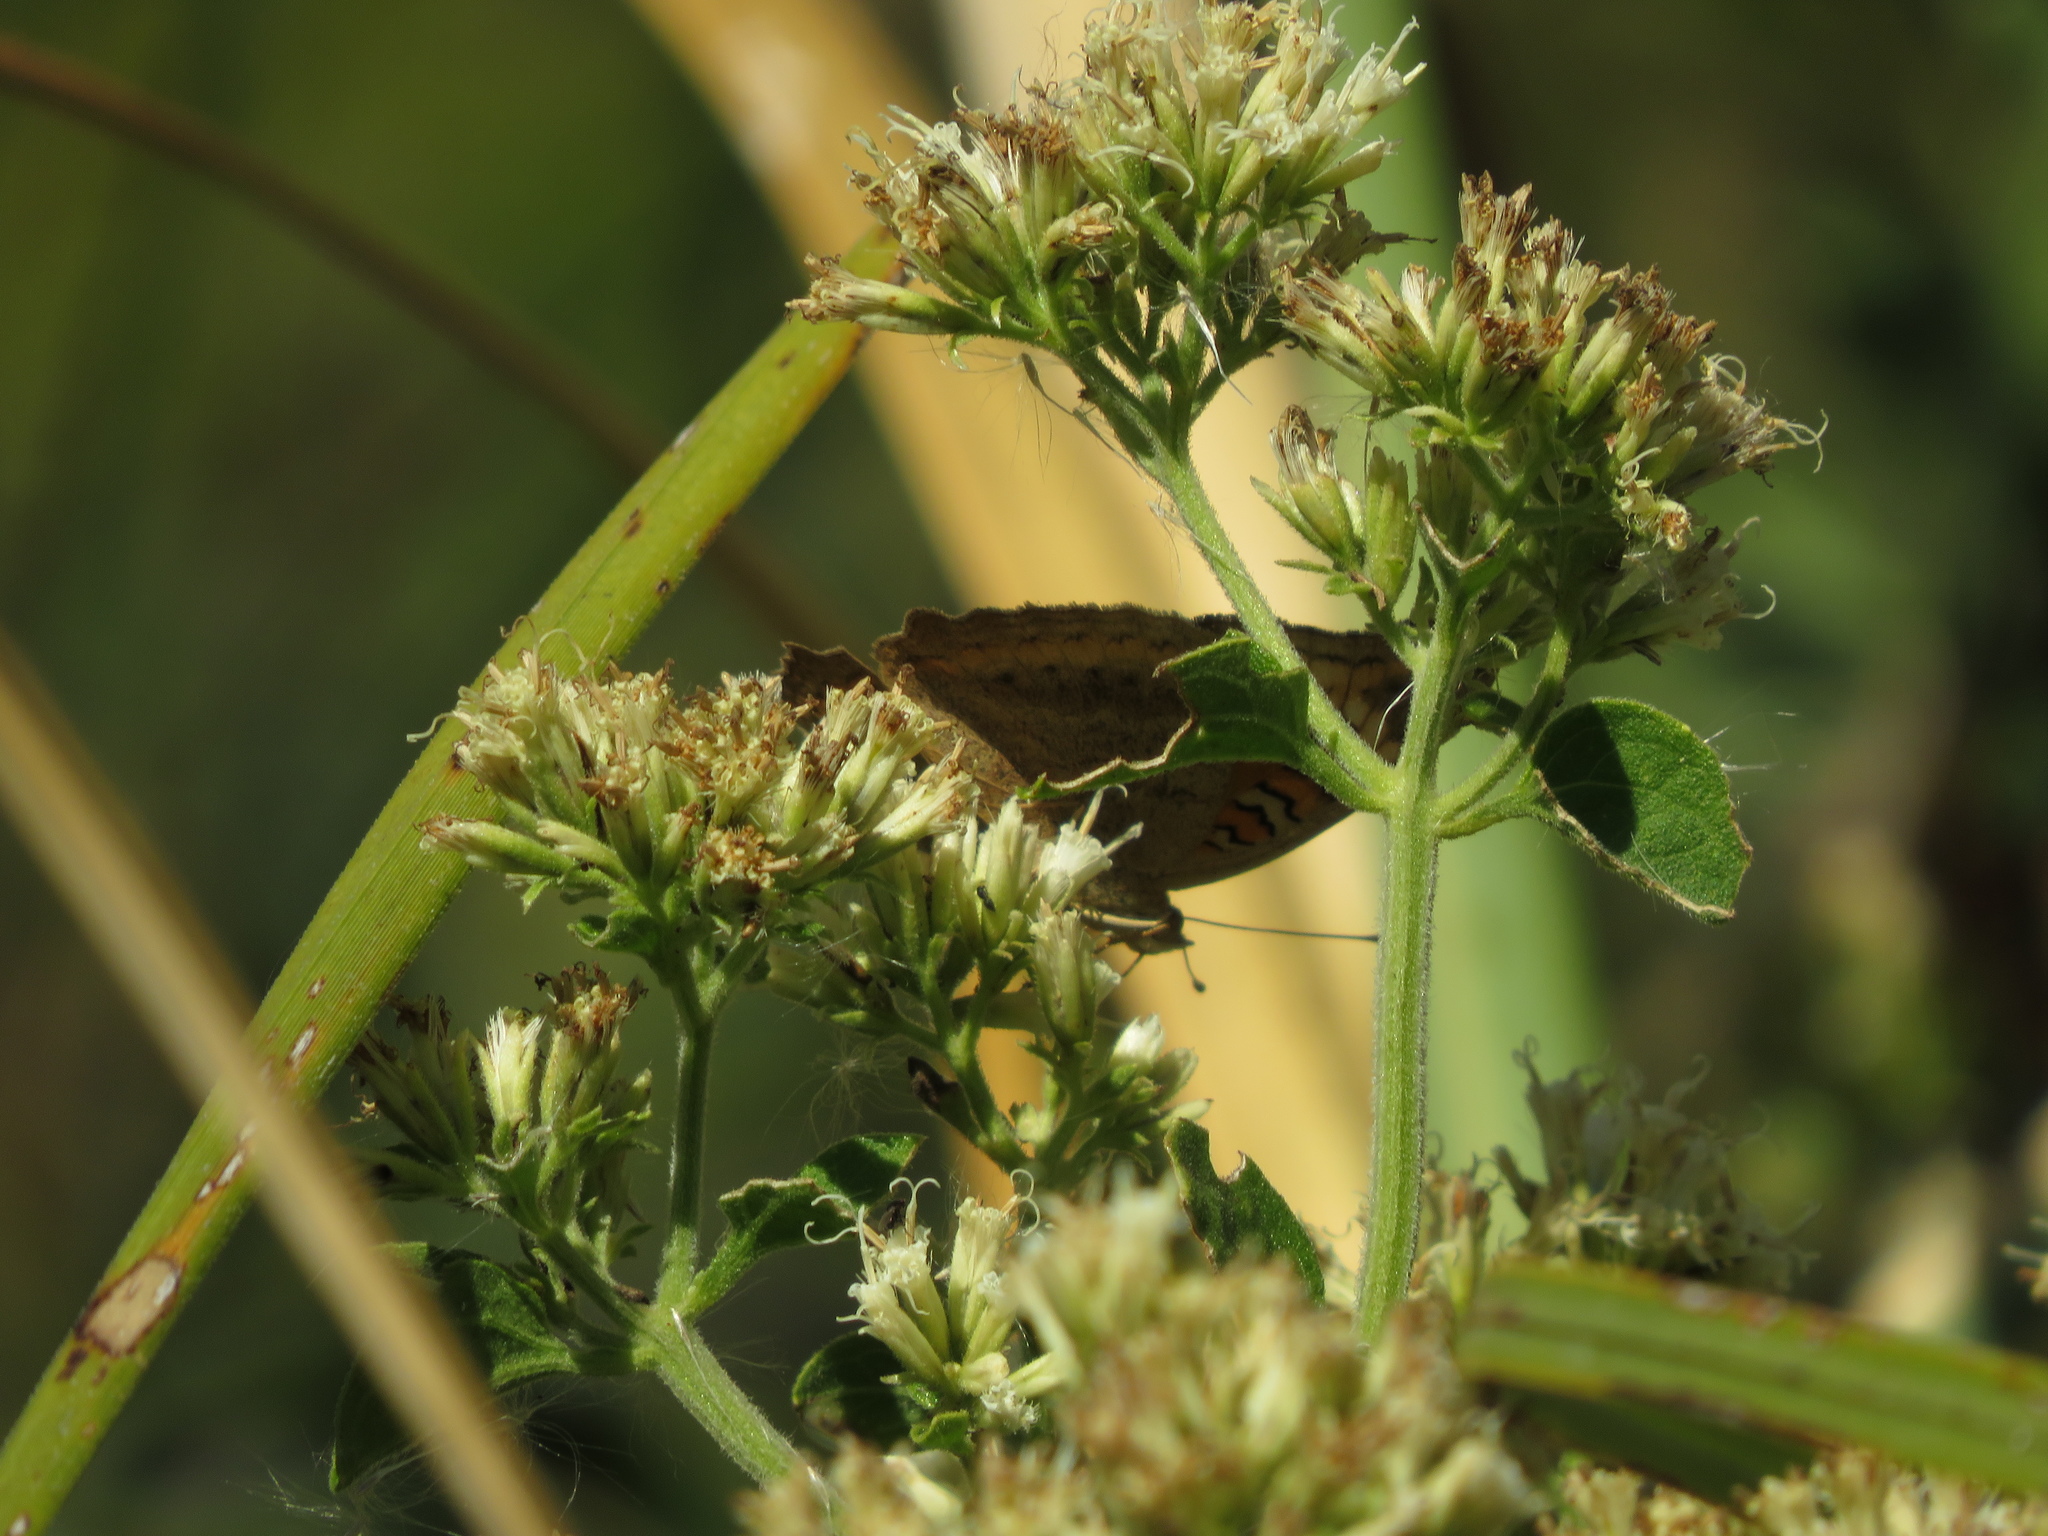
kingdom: Animalia
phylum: Arthropoda
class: Insecta
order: Lepidoptera
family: Nymphalidae
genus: Junonia
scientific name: Junonia lavinia
